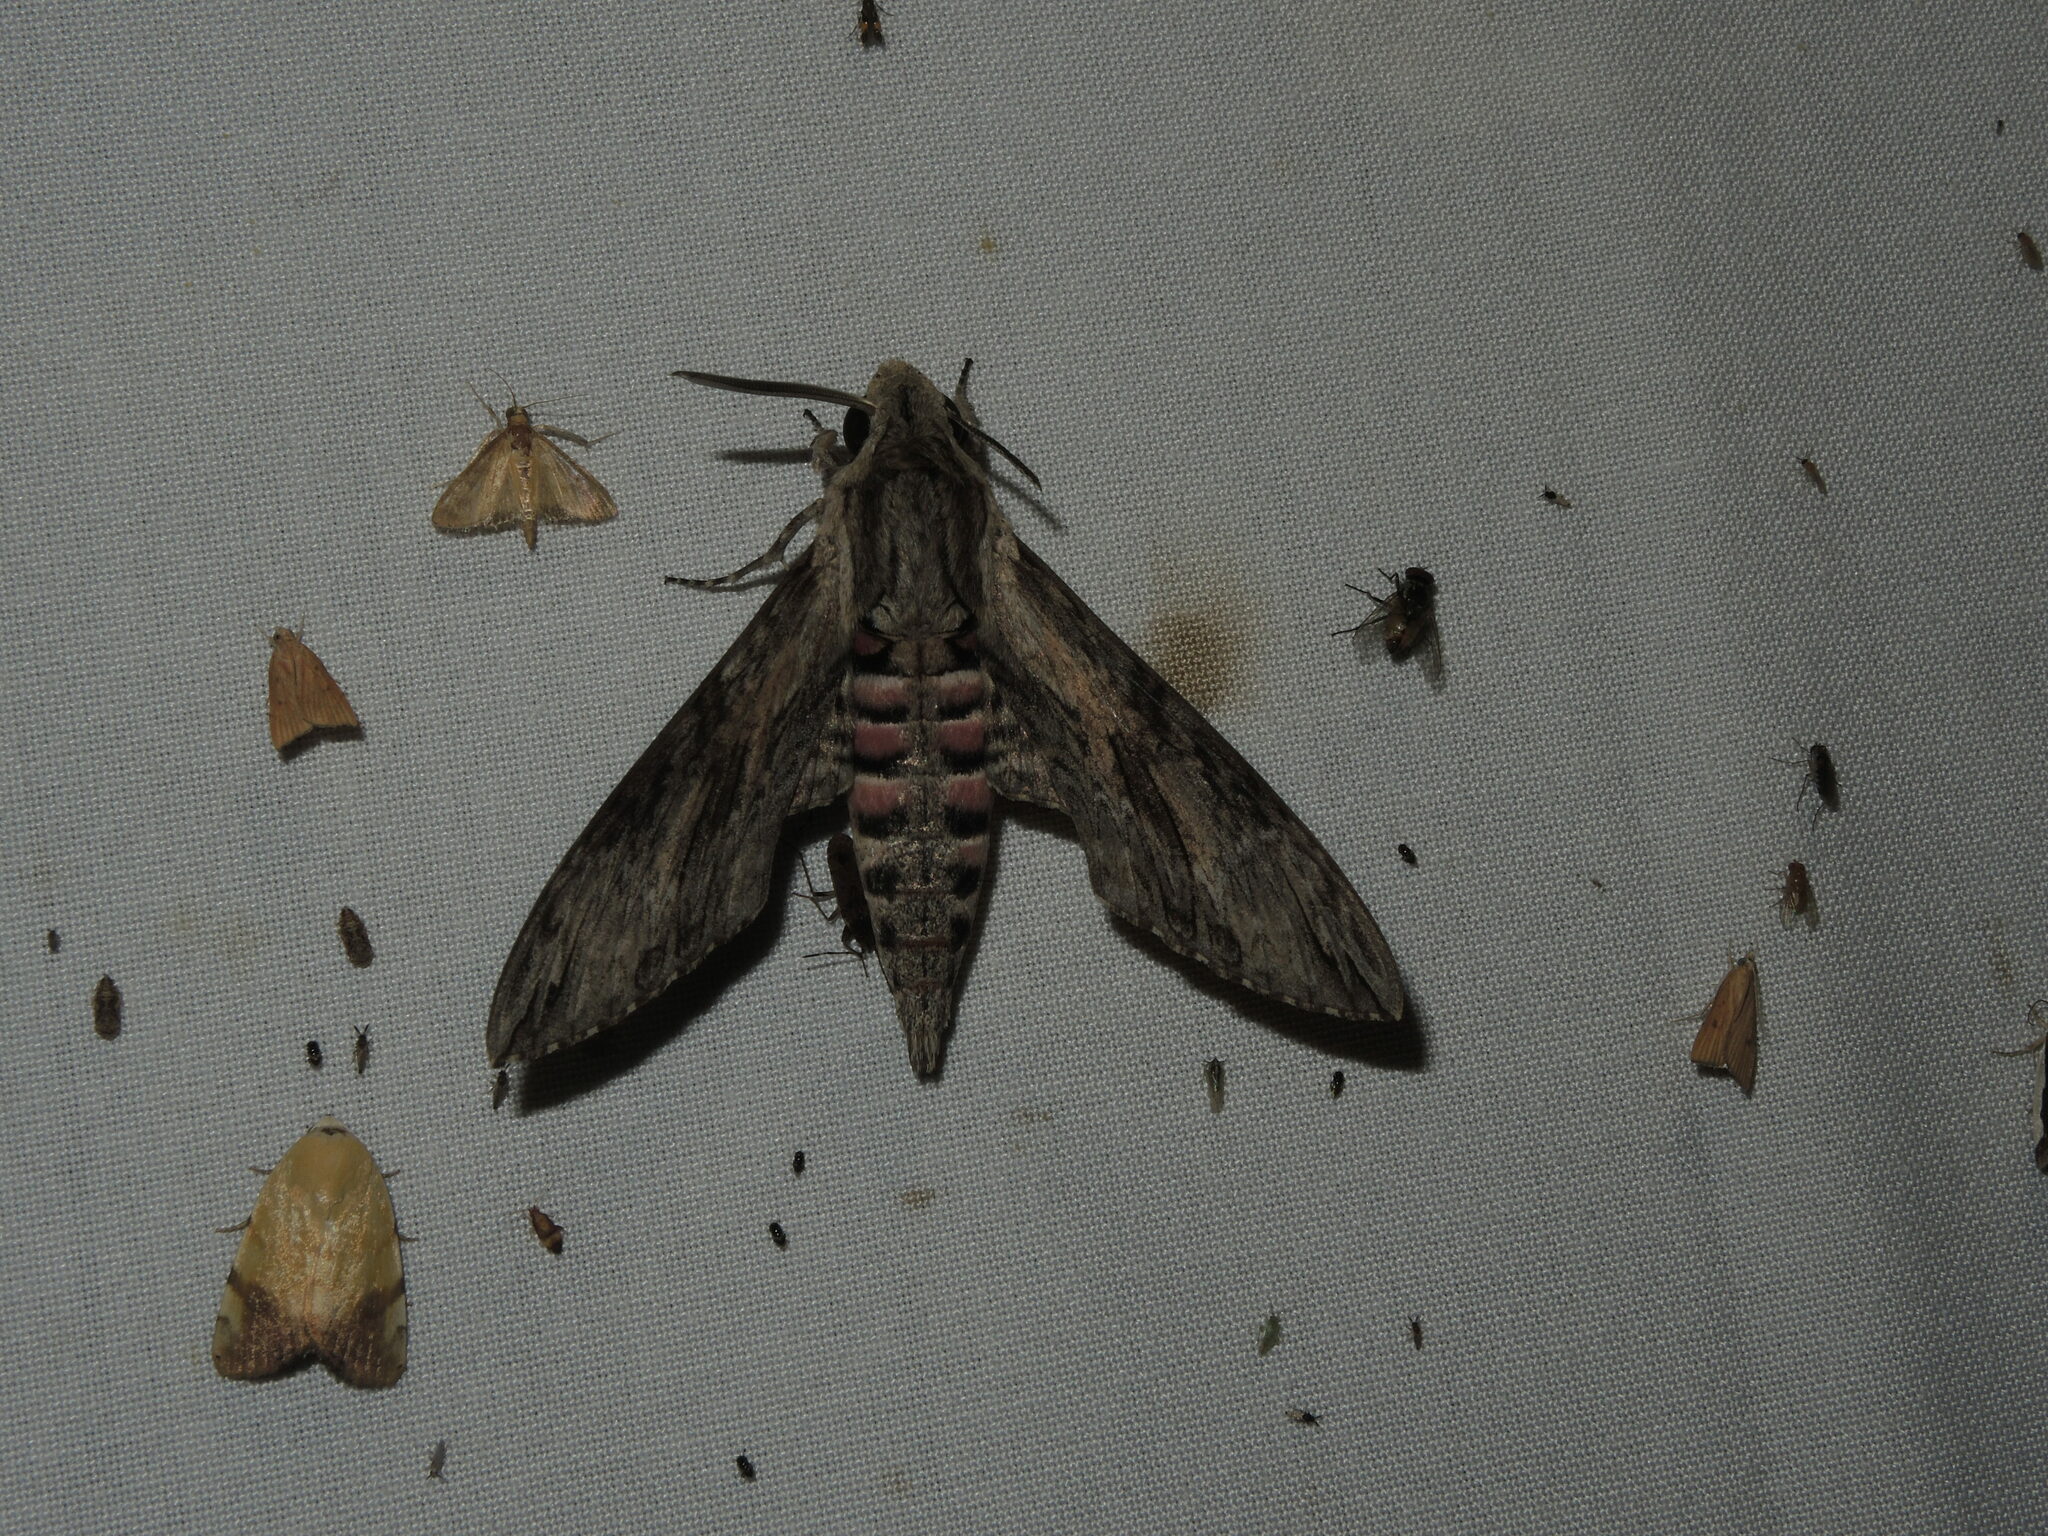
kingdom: Animalia
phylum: Arthropoda
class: Insecta
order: Lepidoptera
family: Sphingidae
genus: Agrius
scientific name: Agrius convolvuli
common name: Convolvulus hawkmoth
